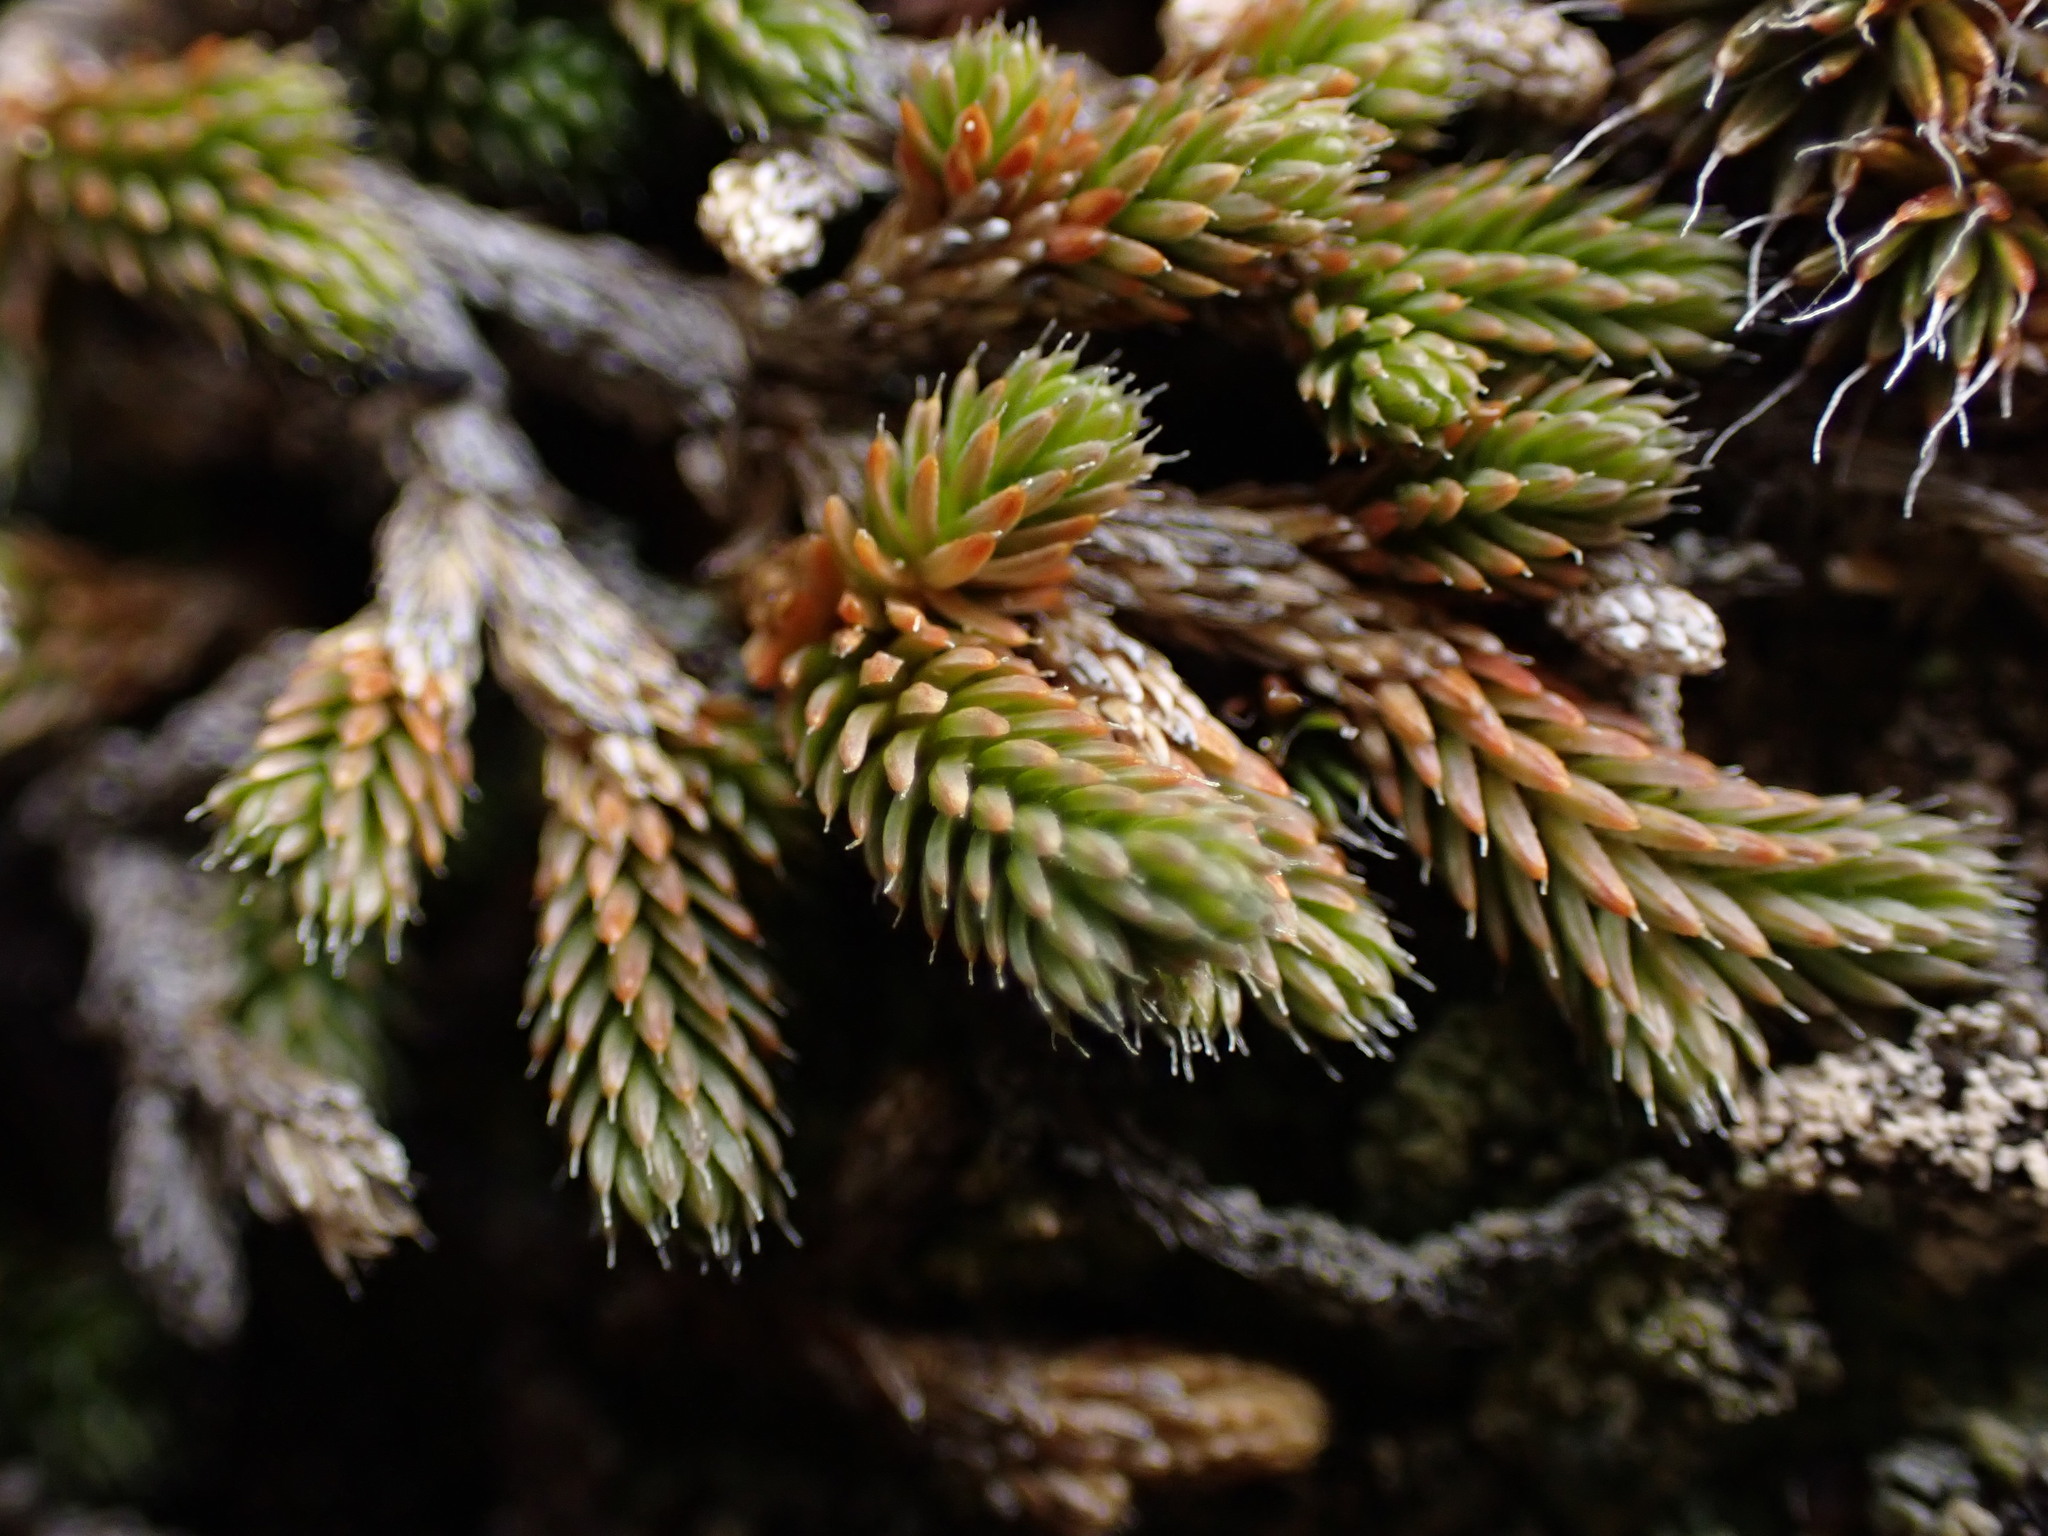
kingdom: Plantae
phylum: Tracheophyta
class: Lycopodiopsida
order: Selaginellales
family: Selaginellaceae
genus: Selaginella
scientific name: Selaginella wallacei
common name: Wallace's selaginella
